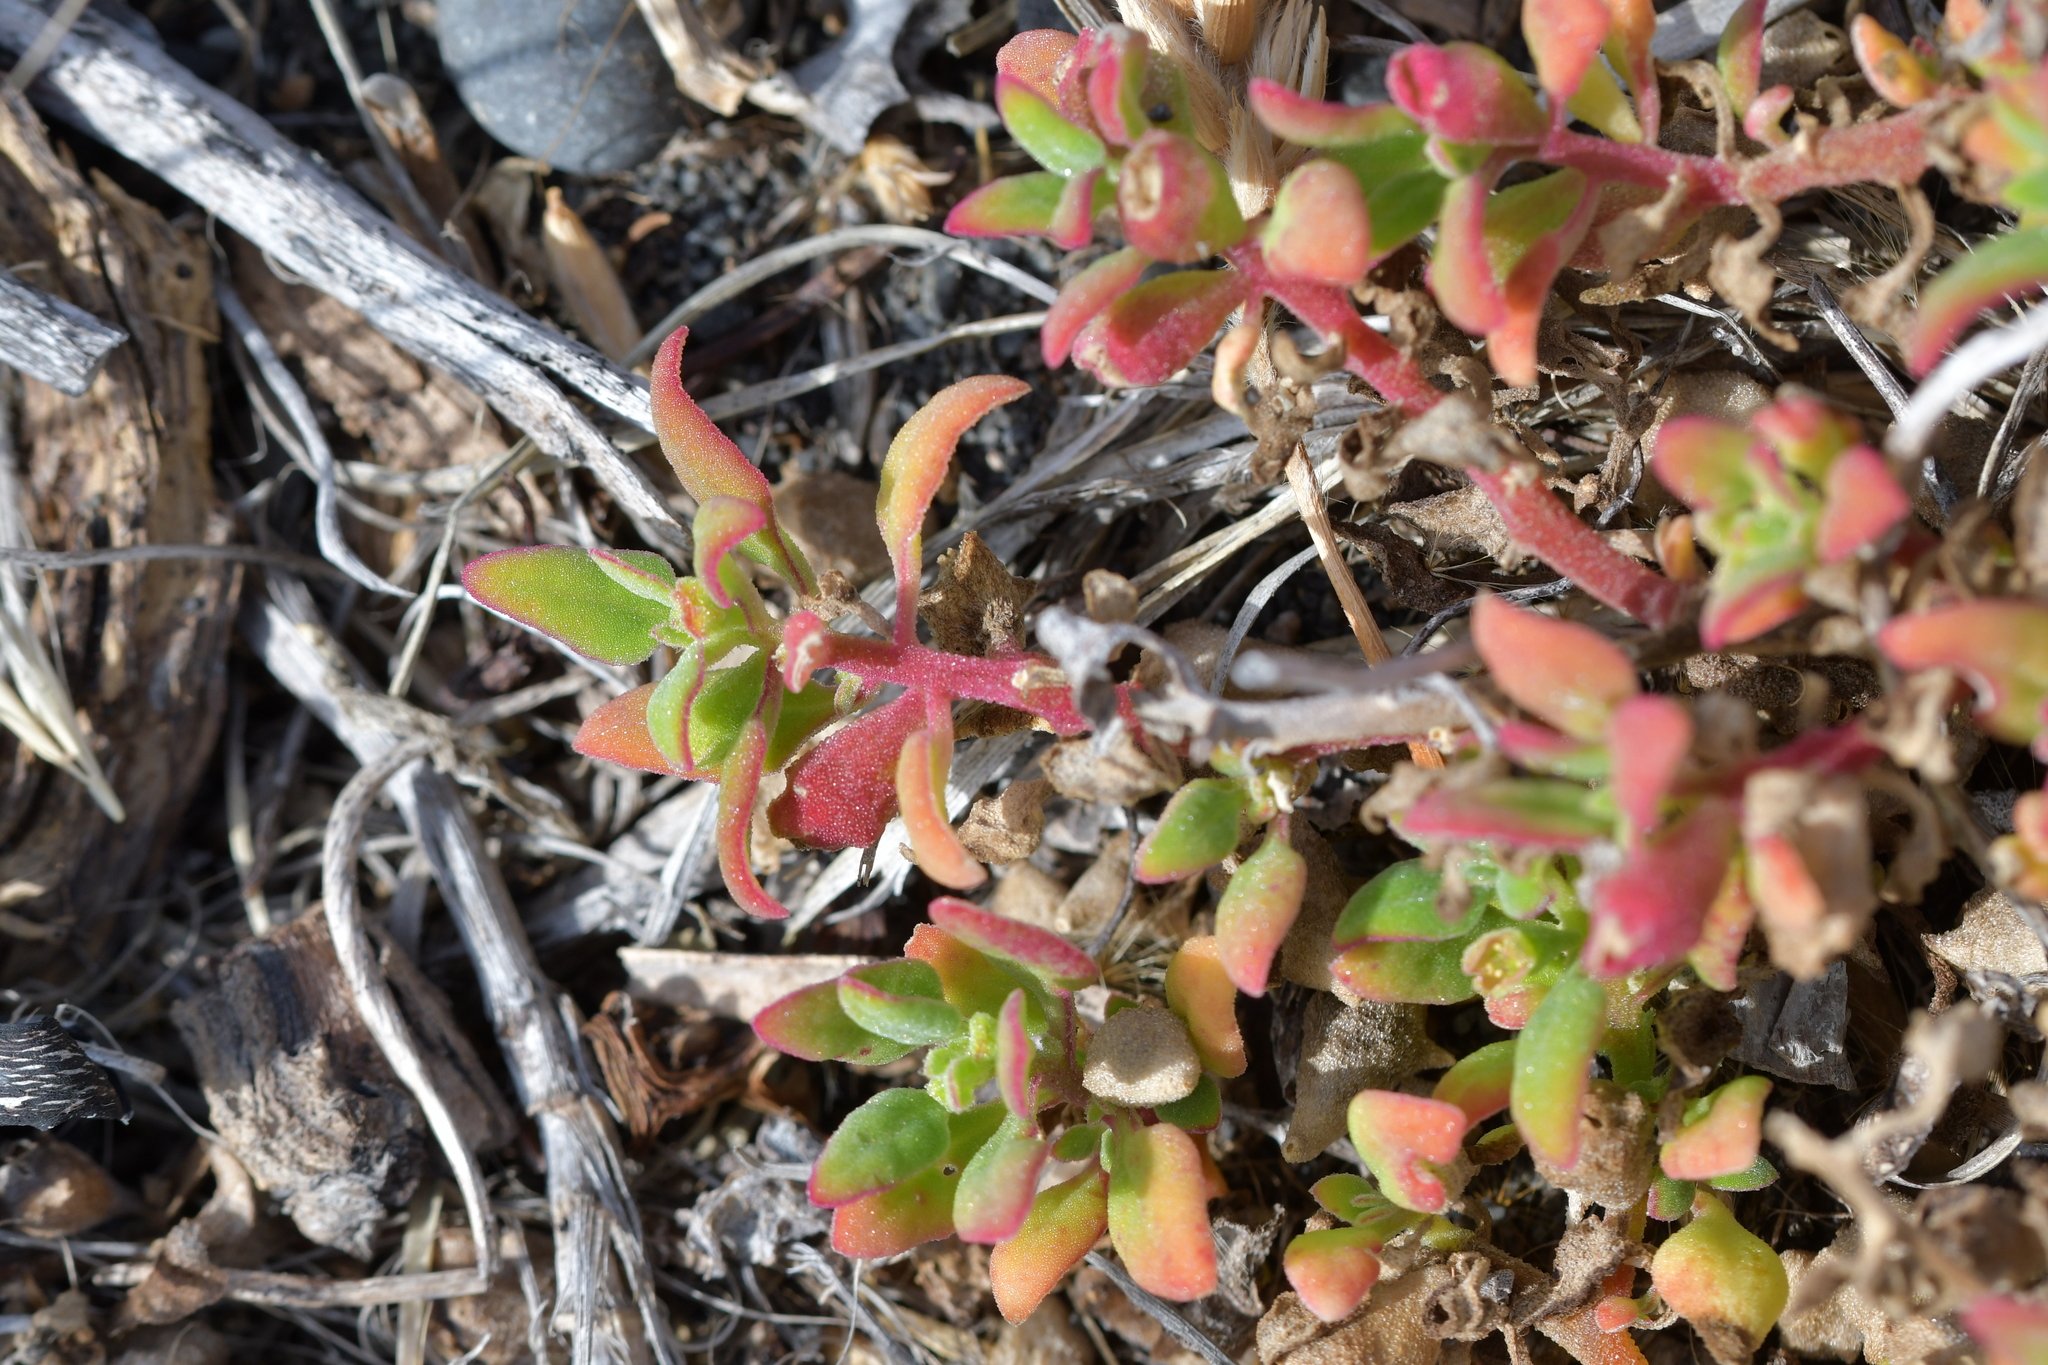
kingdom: Plantae
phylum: Tracheophyta
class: Magnoliopsida
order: Caryophyllales
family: Aizoaceae
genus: Tetragonia
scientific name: Tetragonia implexicoma
